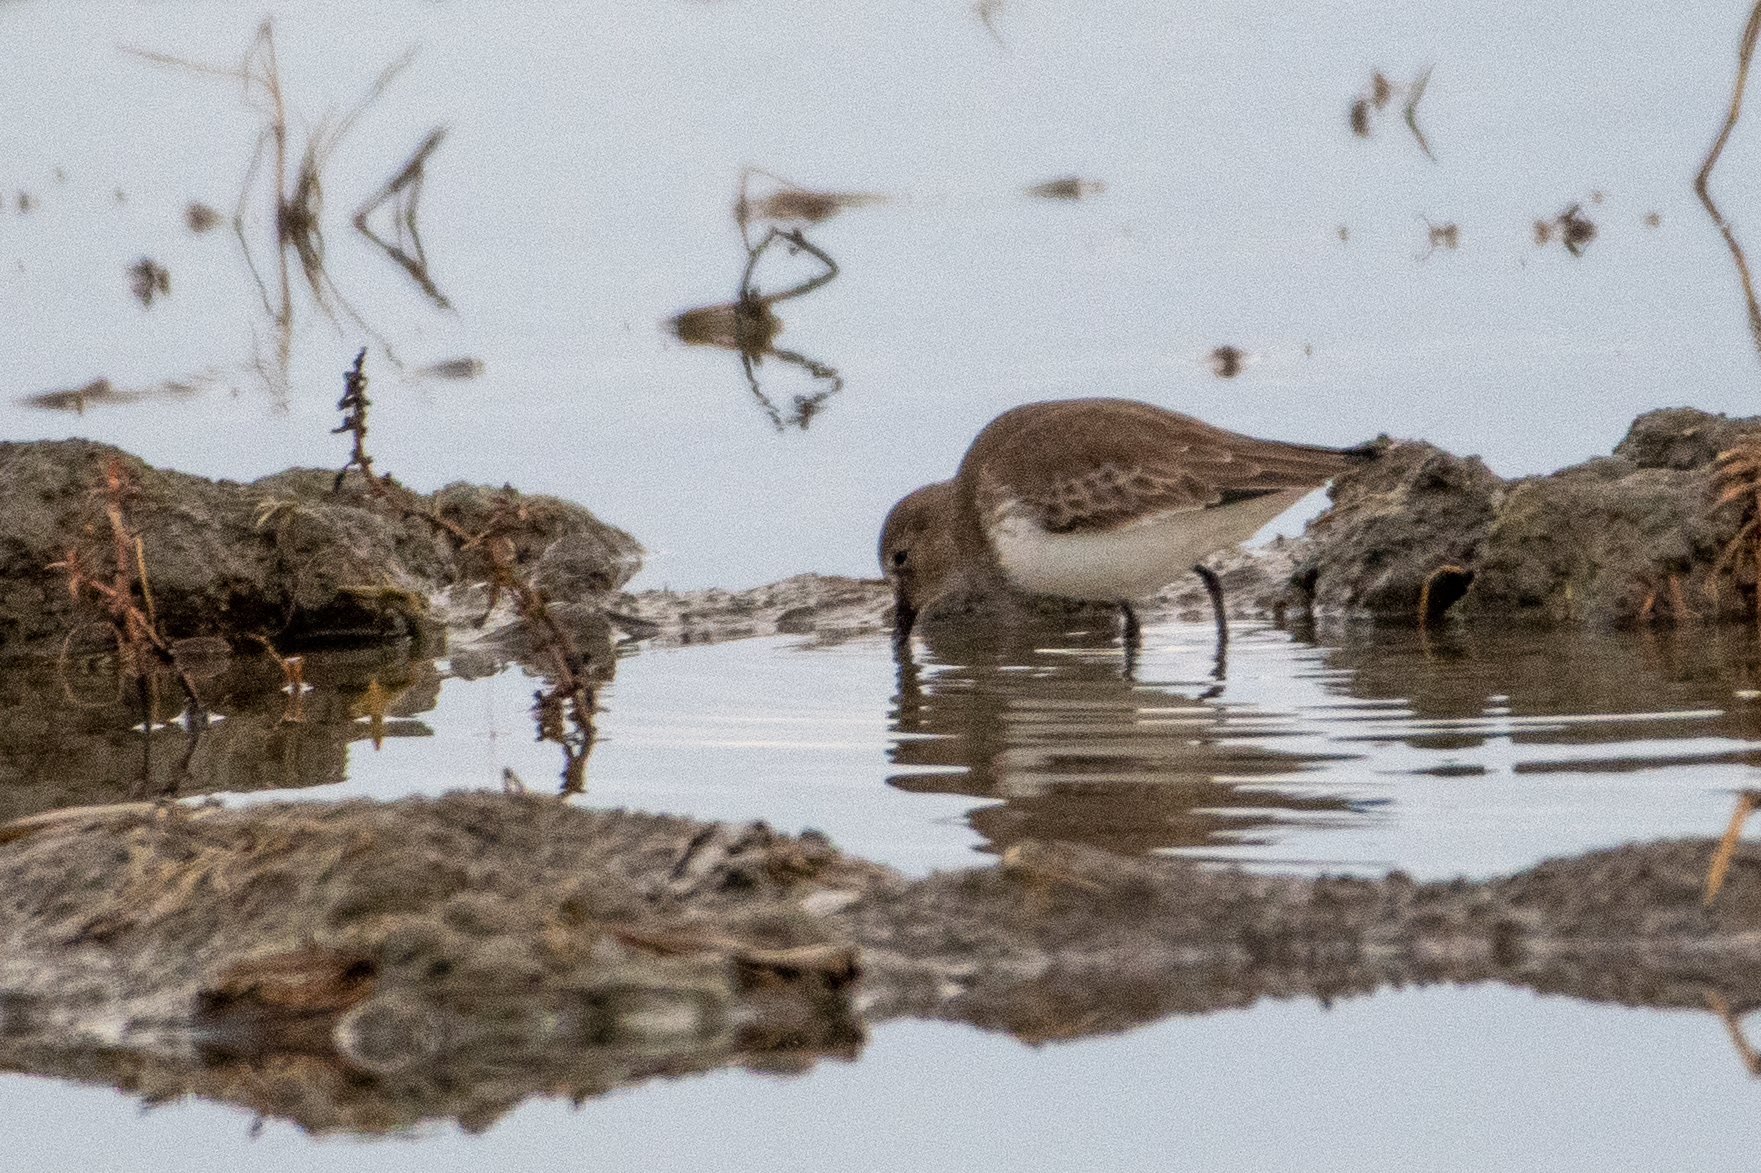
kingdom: Animalia
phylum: Chordata
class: Aves
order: Charadriiformes
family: Scolopacidae
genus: Calidris
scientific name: Calidris alpina
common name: Dunlin
